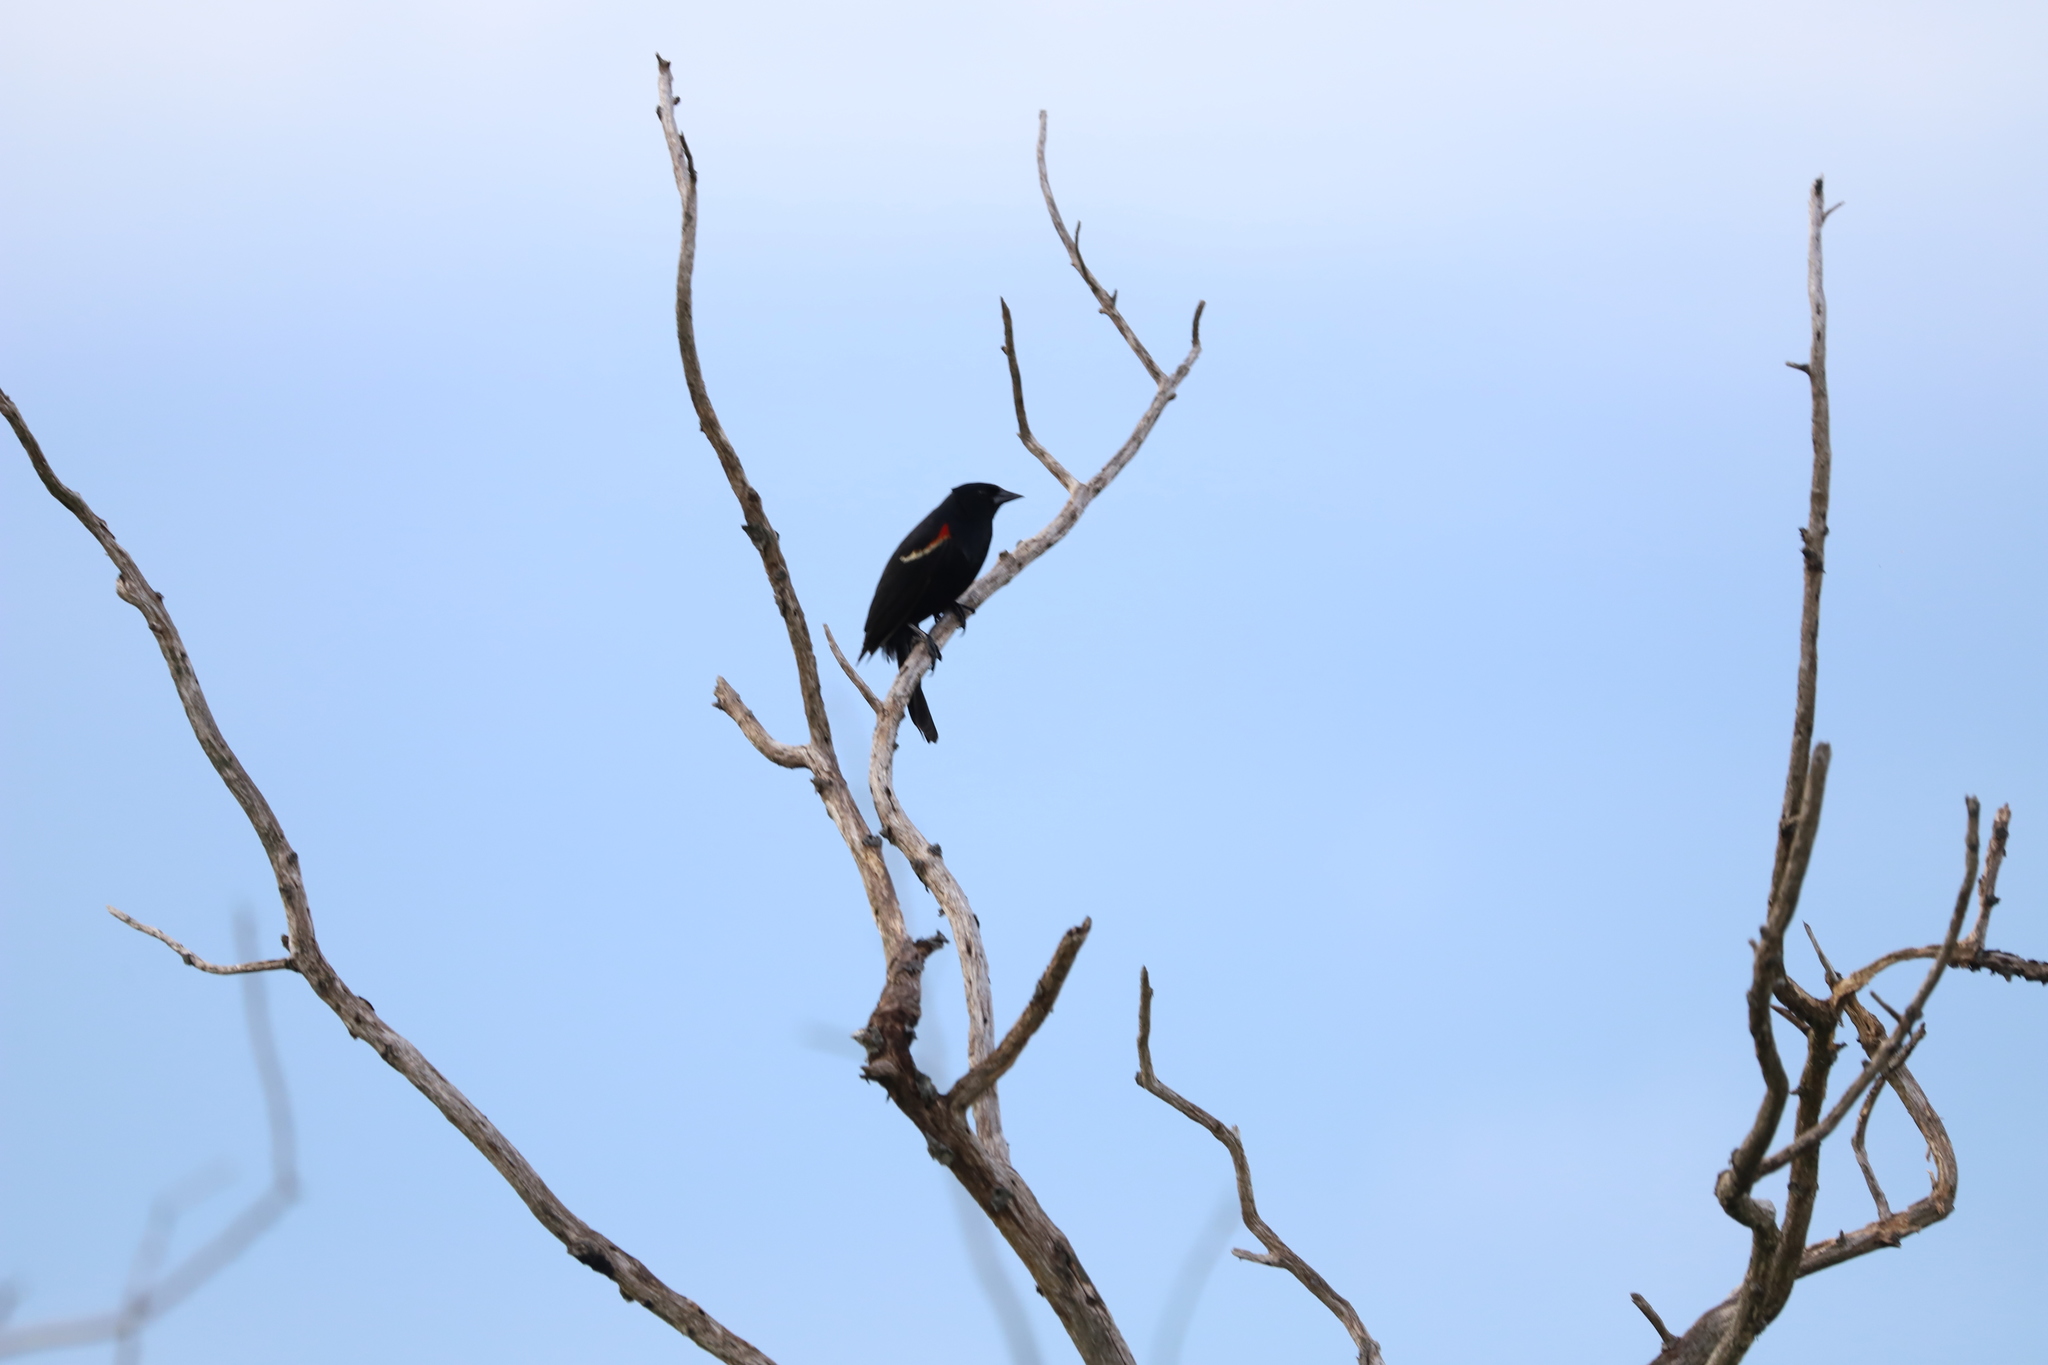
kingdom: Animalia
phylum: Chordata
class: Aves
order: Passeriformes
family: Icteridae
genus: Agelaius
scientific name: Agelaius phoeniceus
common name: Red-winged blackbird
